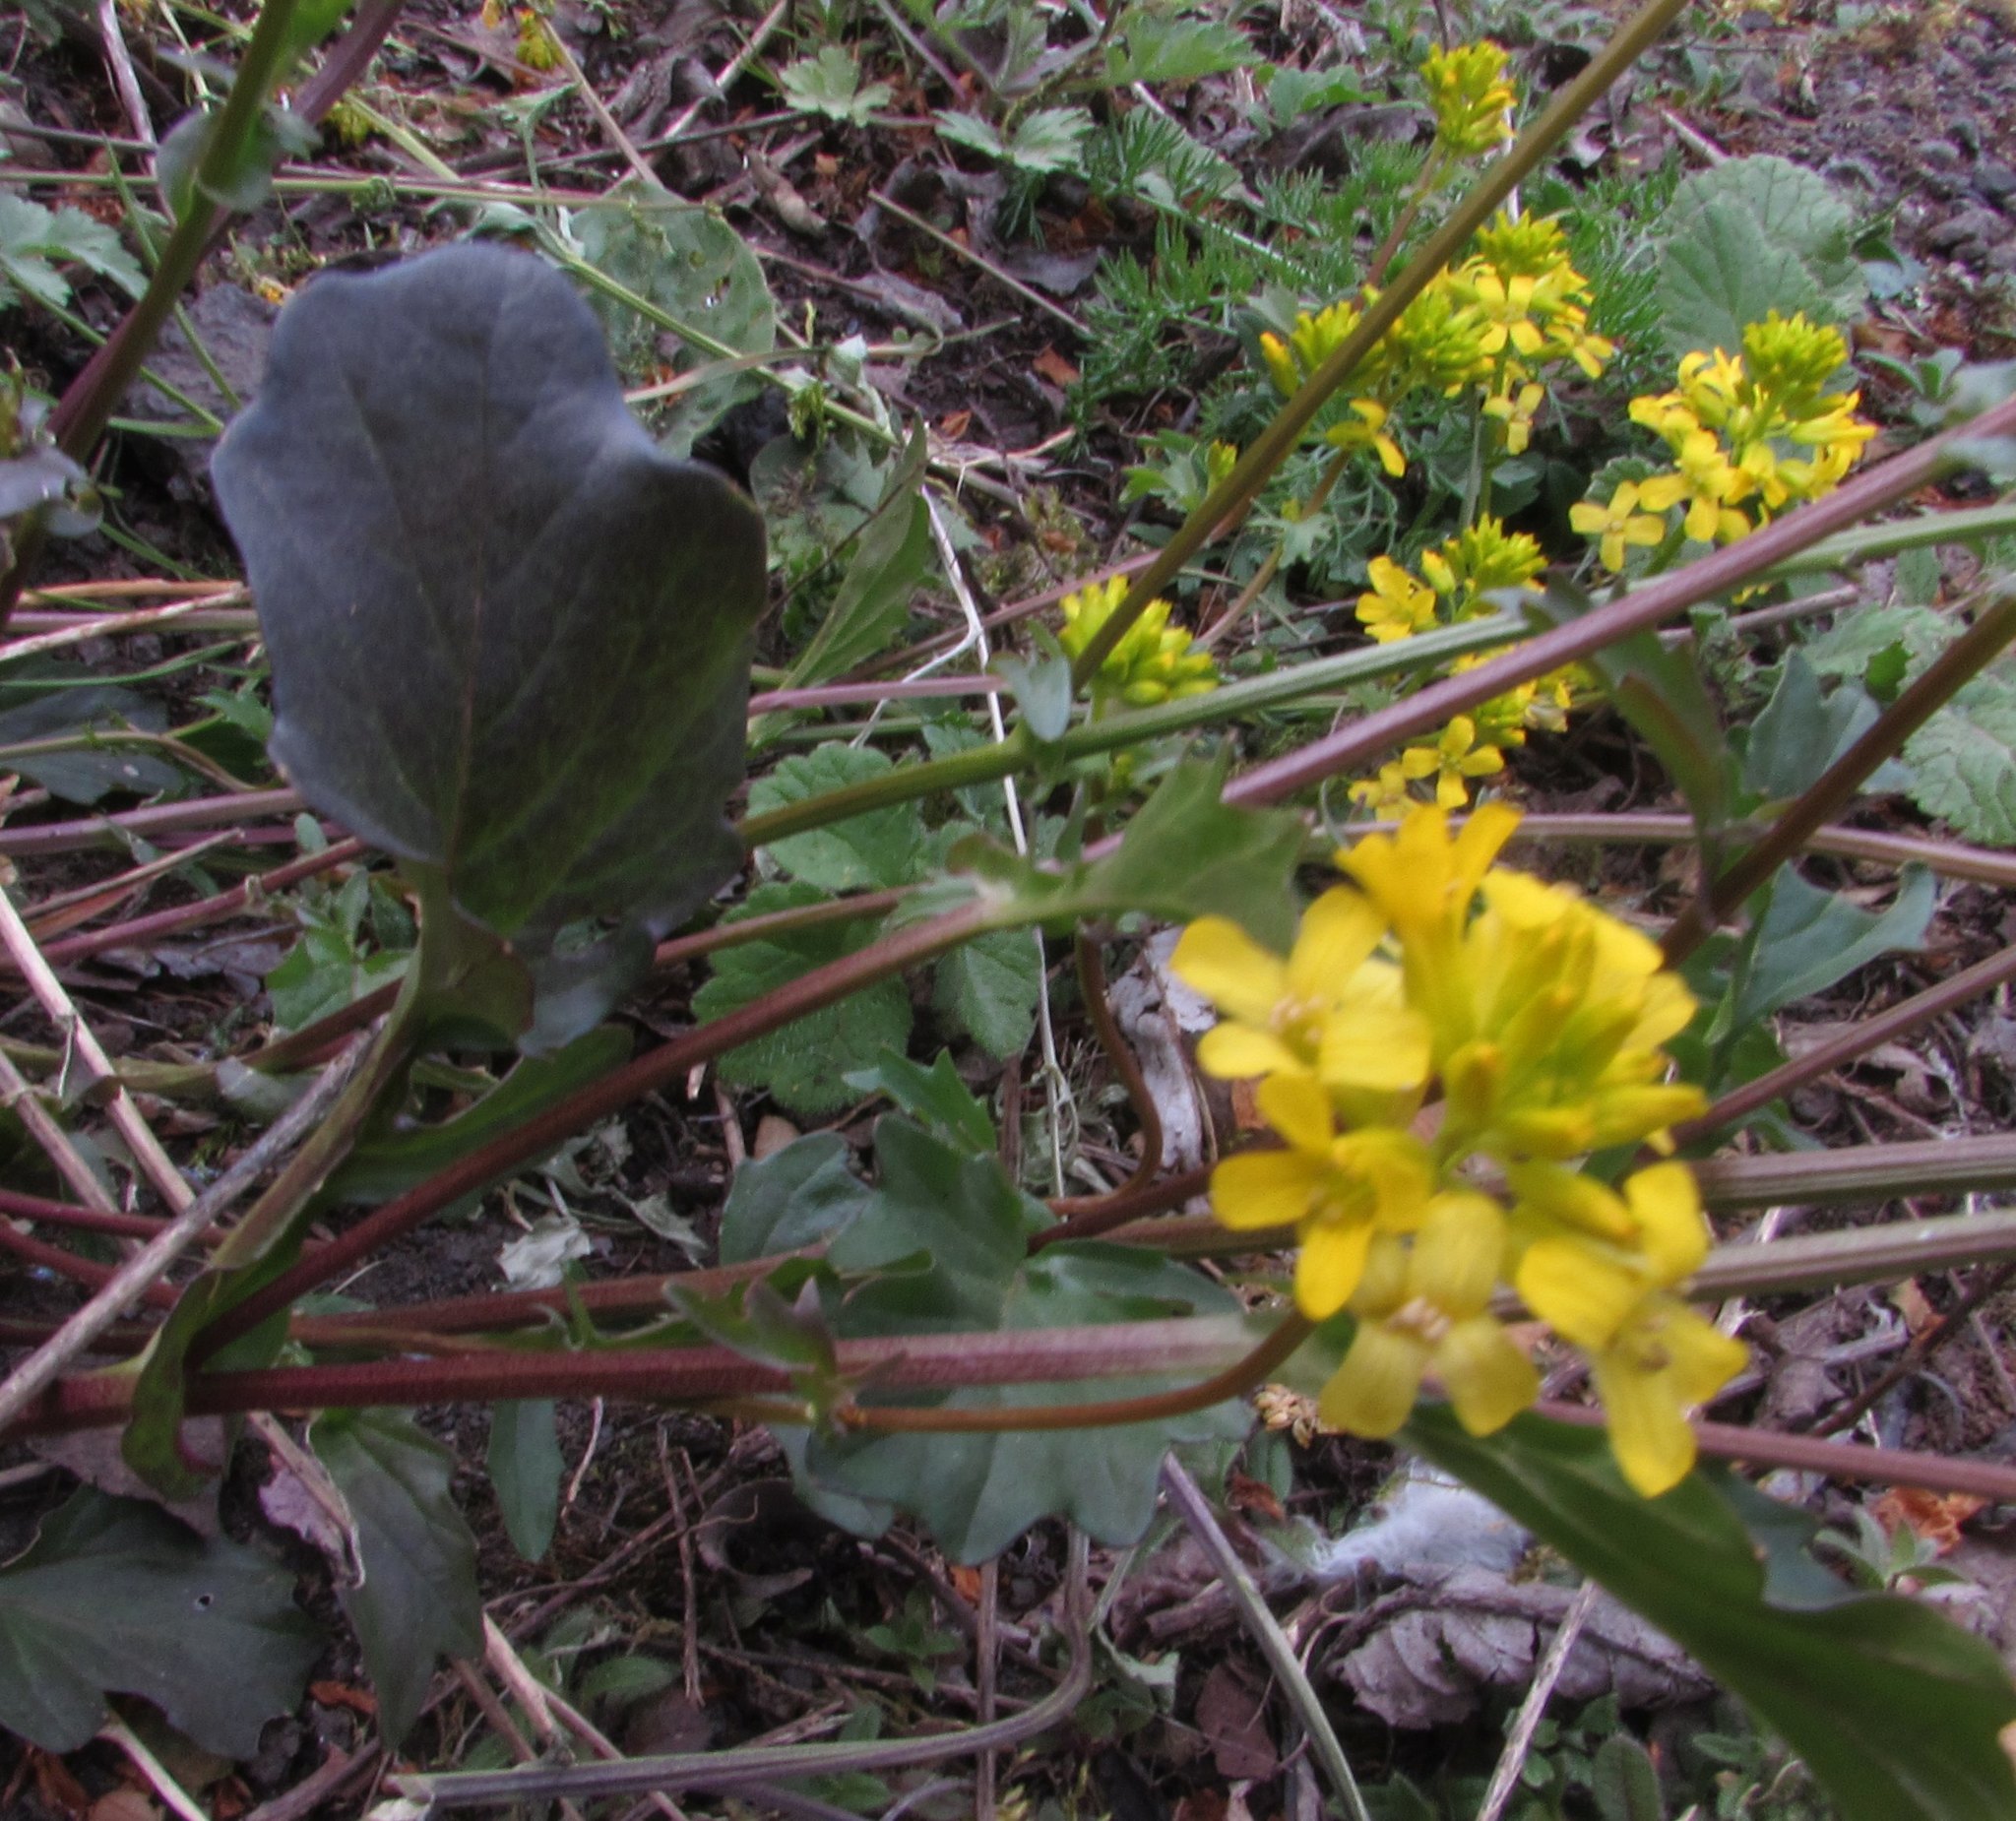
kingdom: Plantae
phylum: Tracheophyta
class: Magnoliopsida
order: Brassicales
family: Brassicaceae
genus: Barbarea
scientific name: Barbarea vulgaris
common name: Cressy-greens
